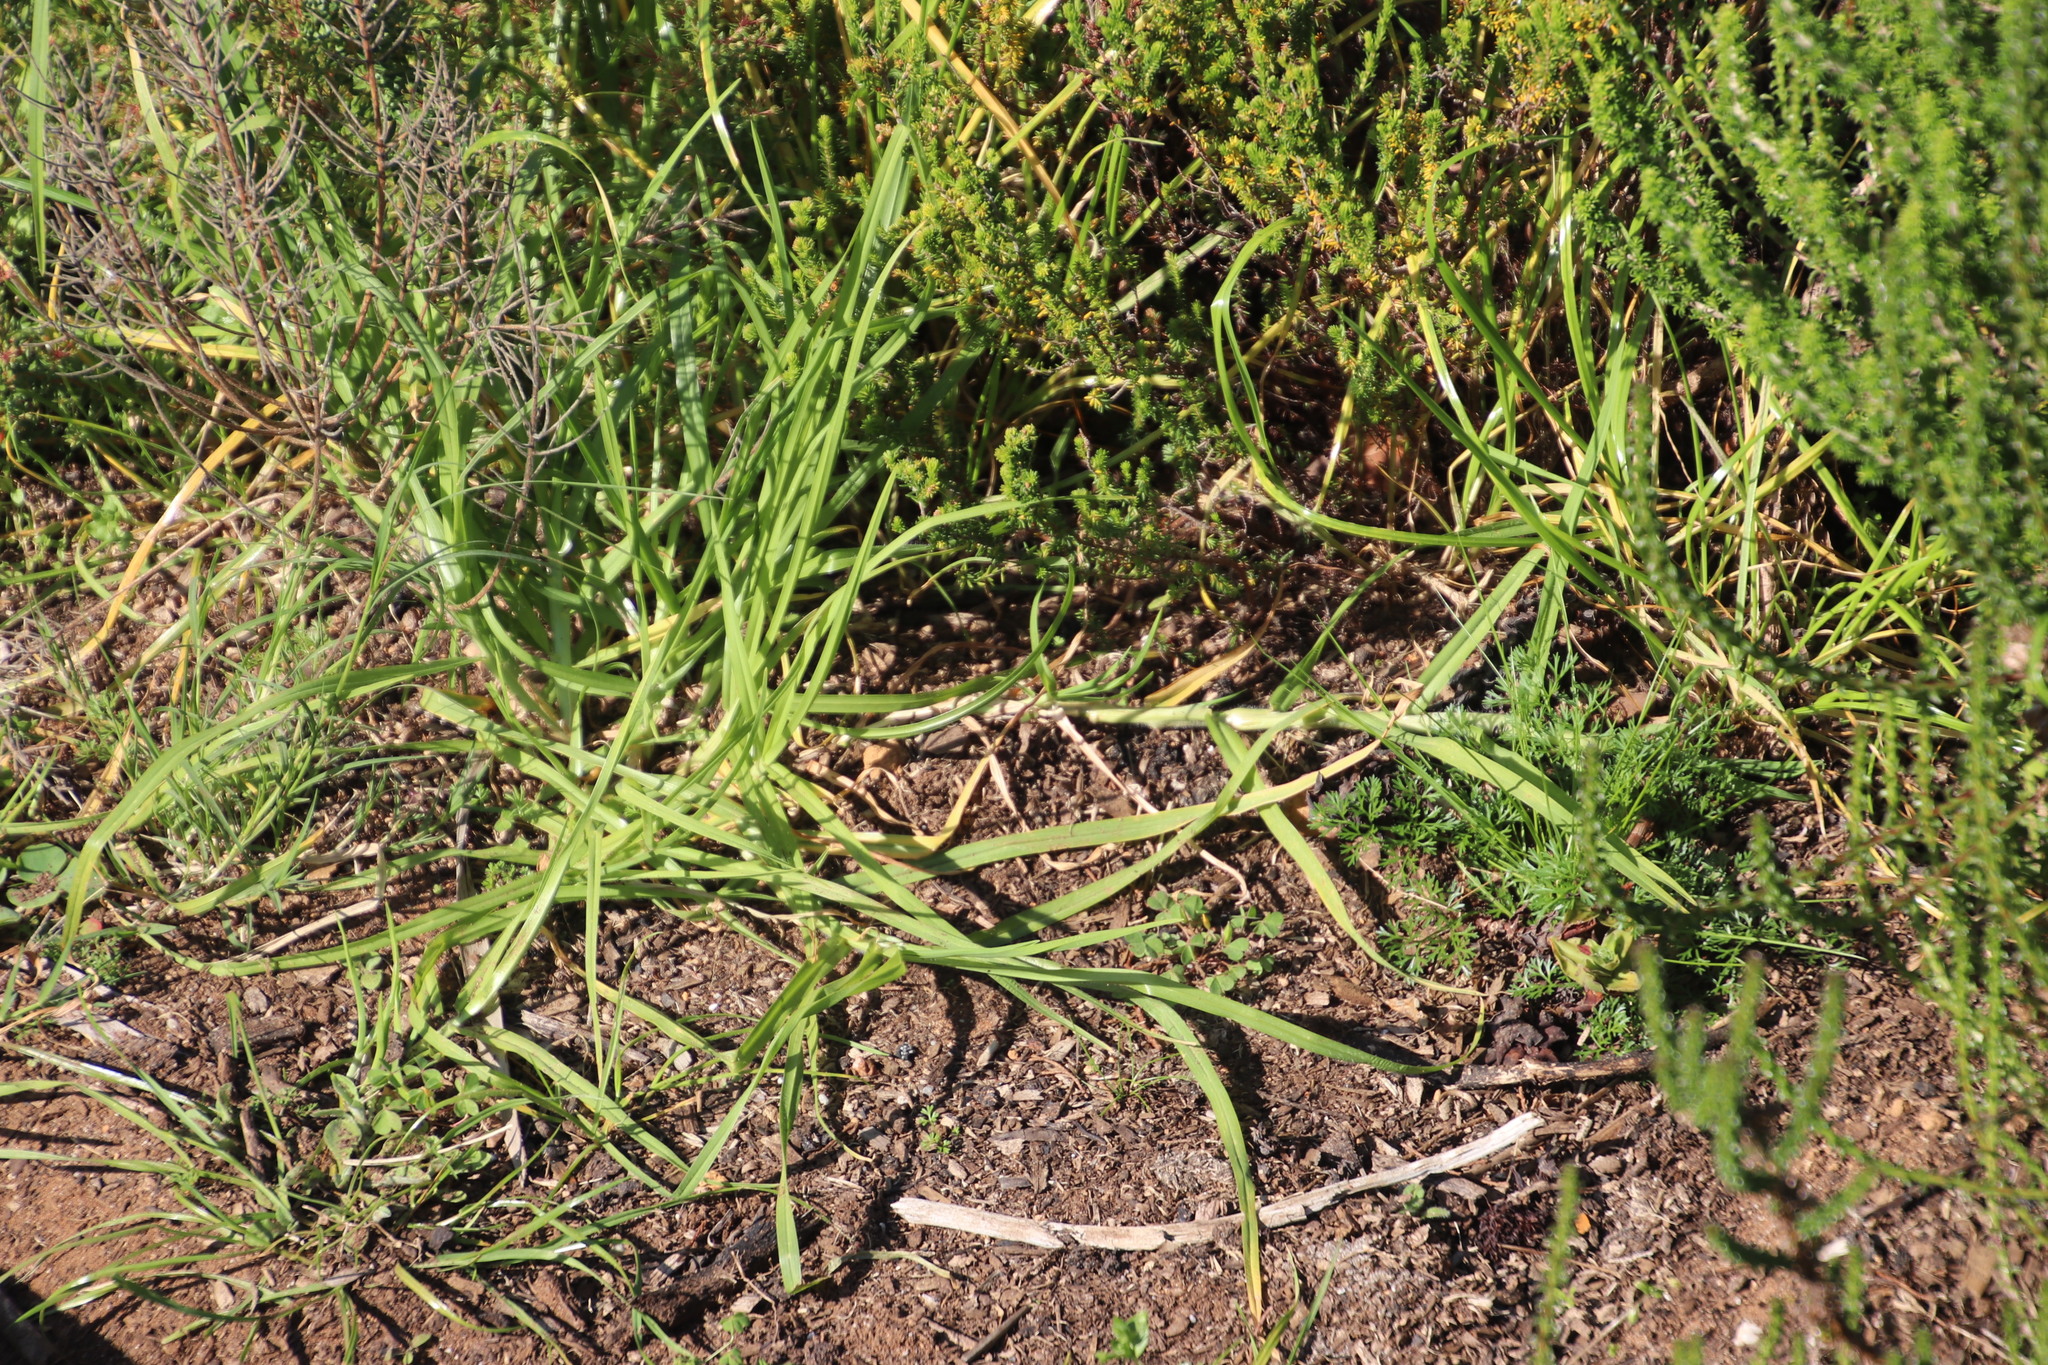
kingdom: Plantae
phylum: Tracheophyta
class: Liliopsida
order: Poales
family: Poaceae
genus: Cenchrus
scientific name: Cenchrus clandestinus
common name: Kikuyugrass
